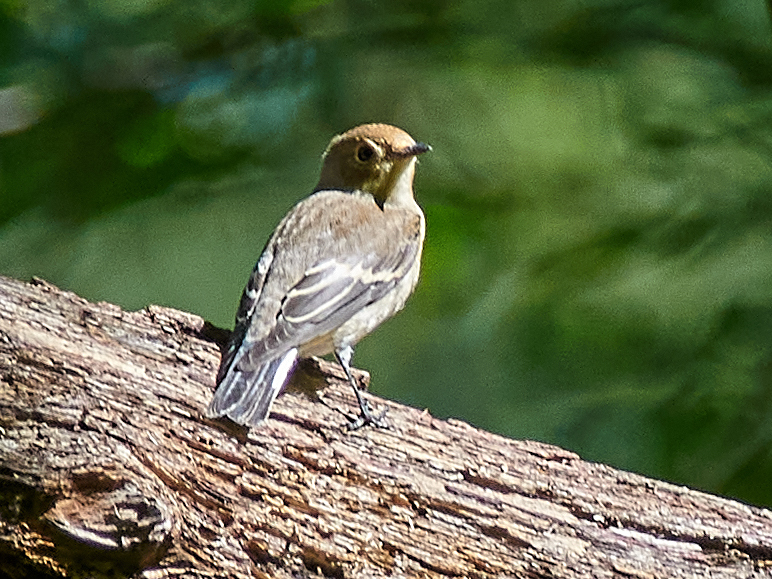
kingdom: Animalia
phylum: Chordata
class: Aves
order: Passeriformes
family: Muscicapidae
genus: Ficedula
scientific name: Ficedula hypoleuca
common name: European pied flycatcher
